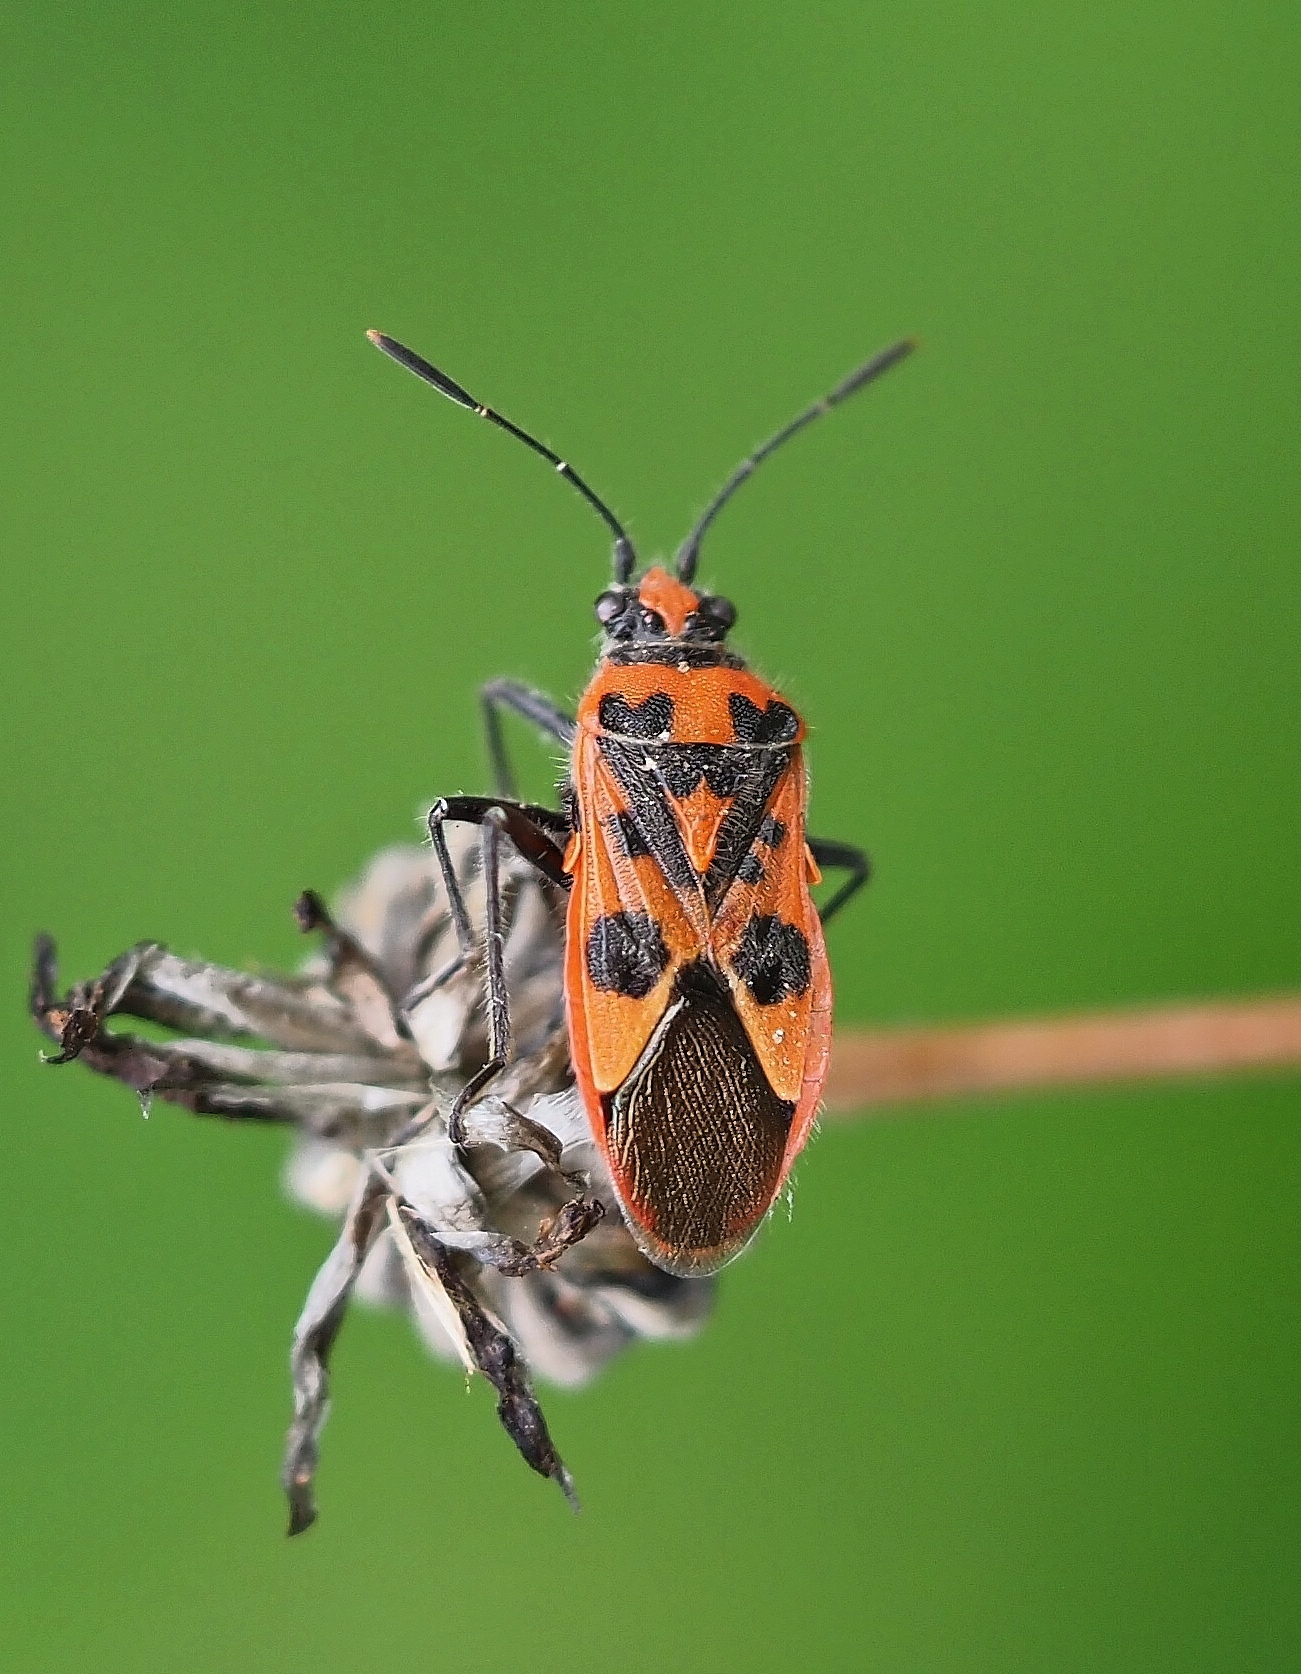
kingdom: Animalia
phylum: Arthropoda
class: Insecta
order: Hemiptera
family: Rhopalidae
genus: Corizus
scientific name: Corizus hyoscyami
